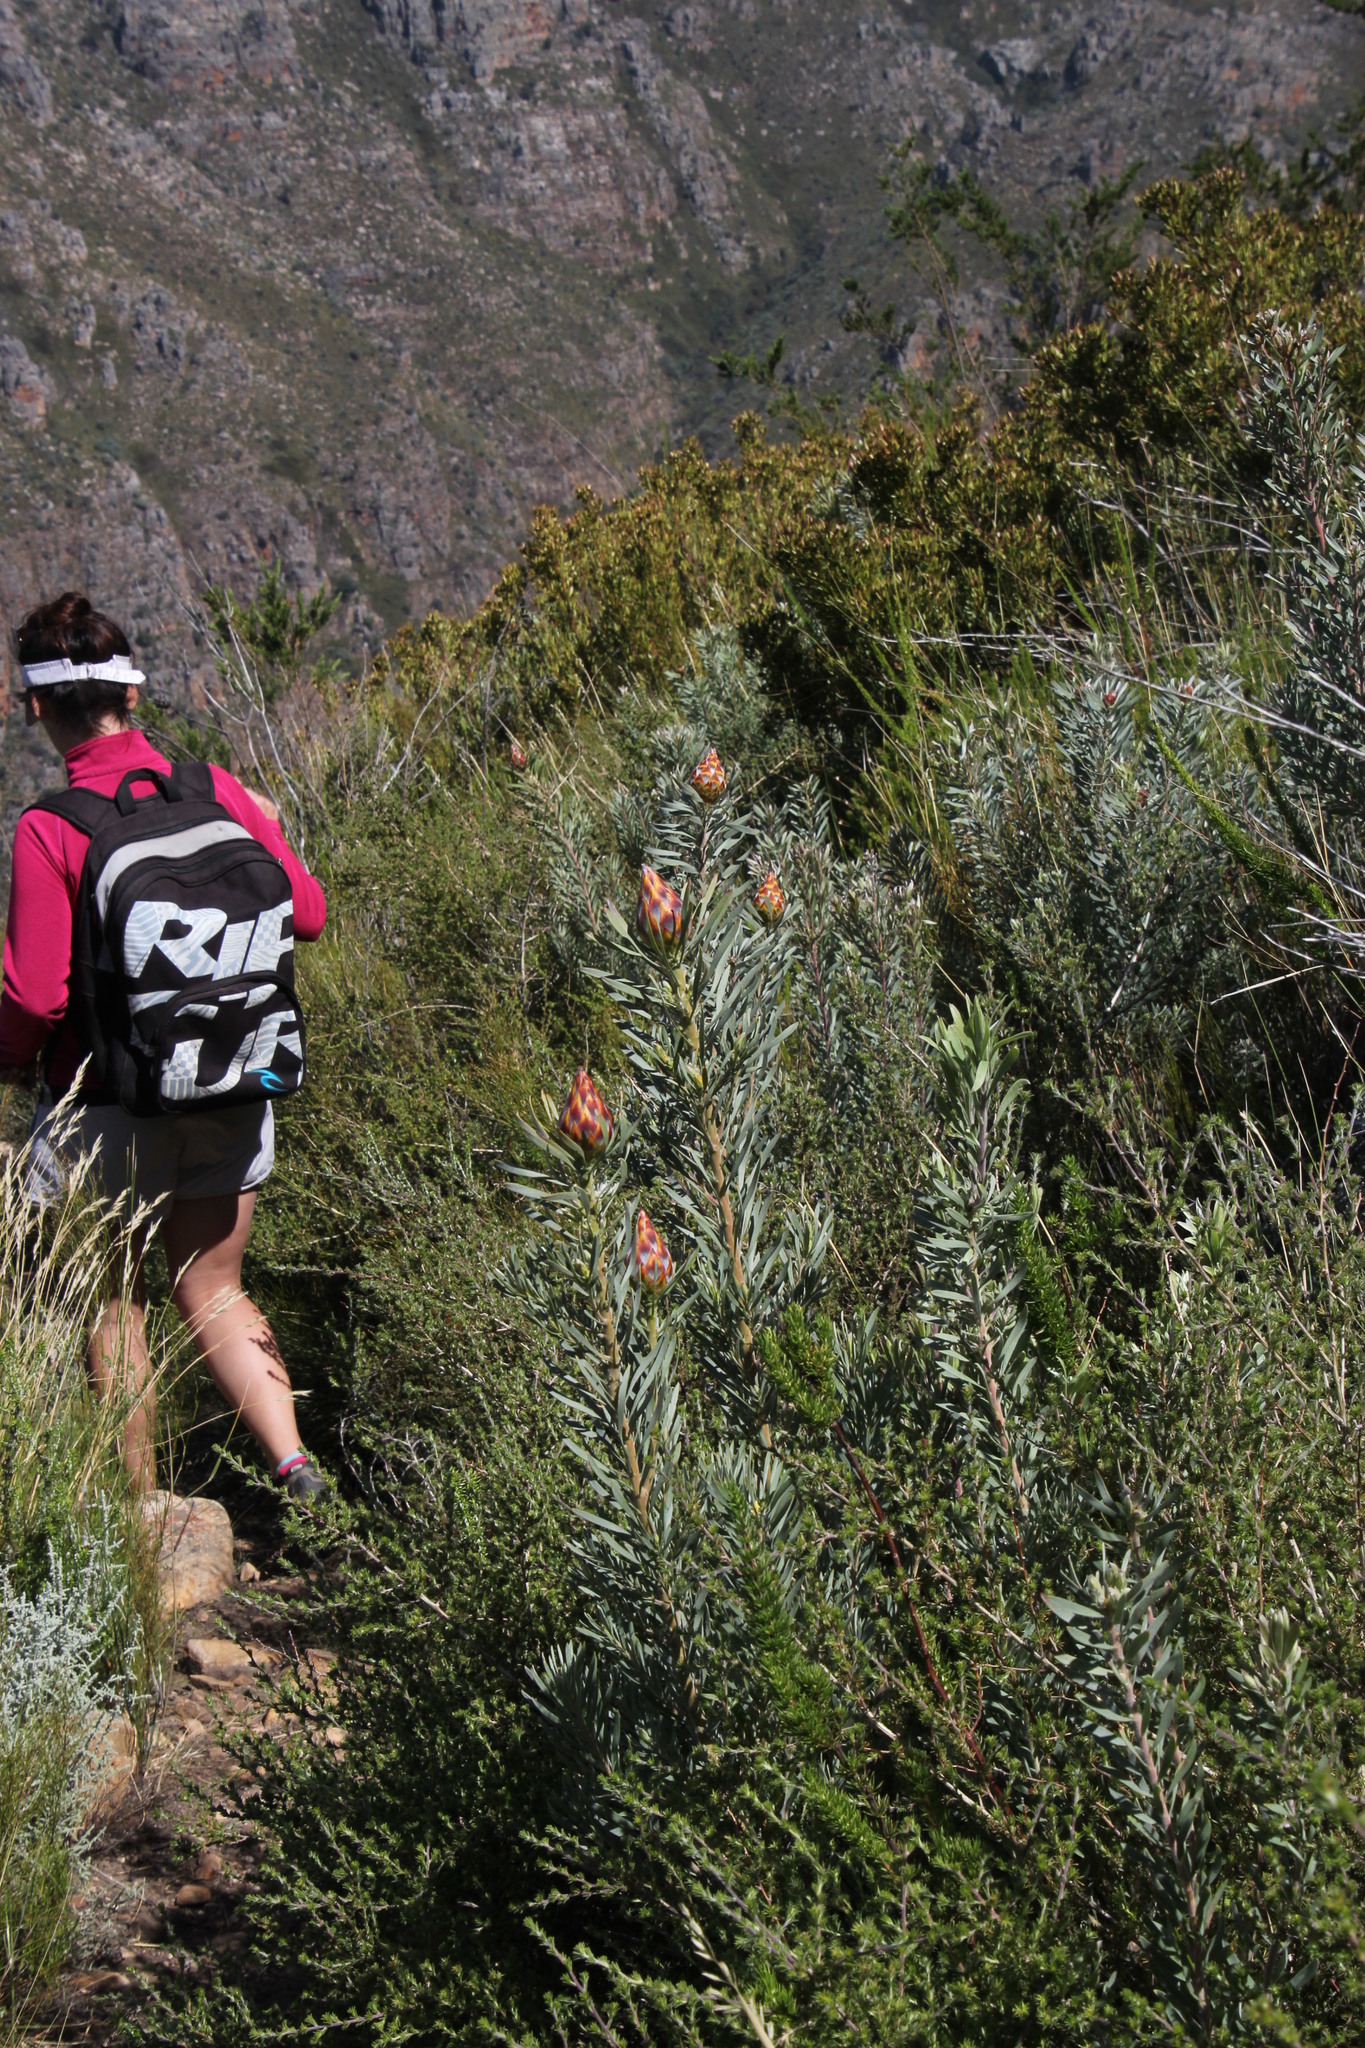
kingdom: Plantae
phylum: Tracheophyta
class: Magnoliopsida
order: Proteales
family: Proteaceae
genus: Leucadendron
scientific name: Leucadendron rubrum
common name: Spinning top
